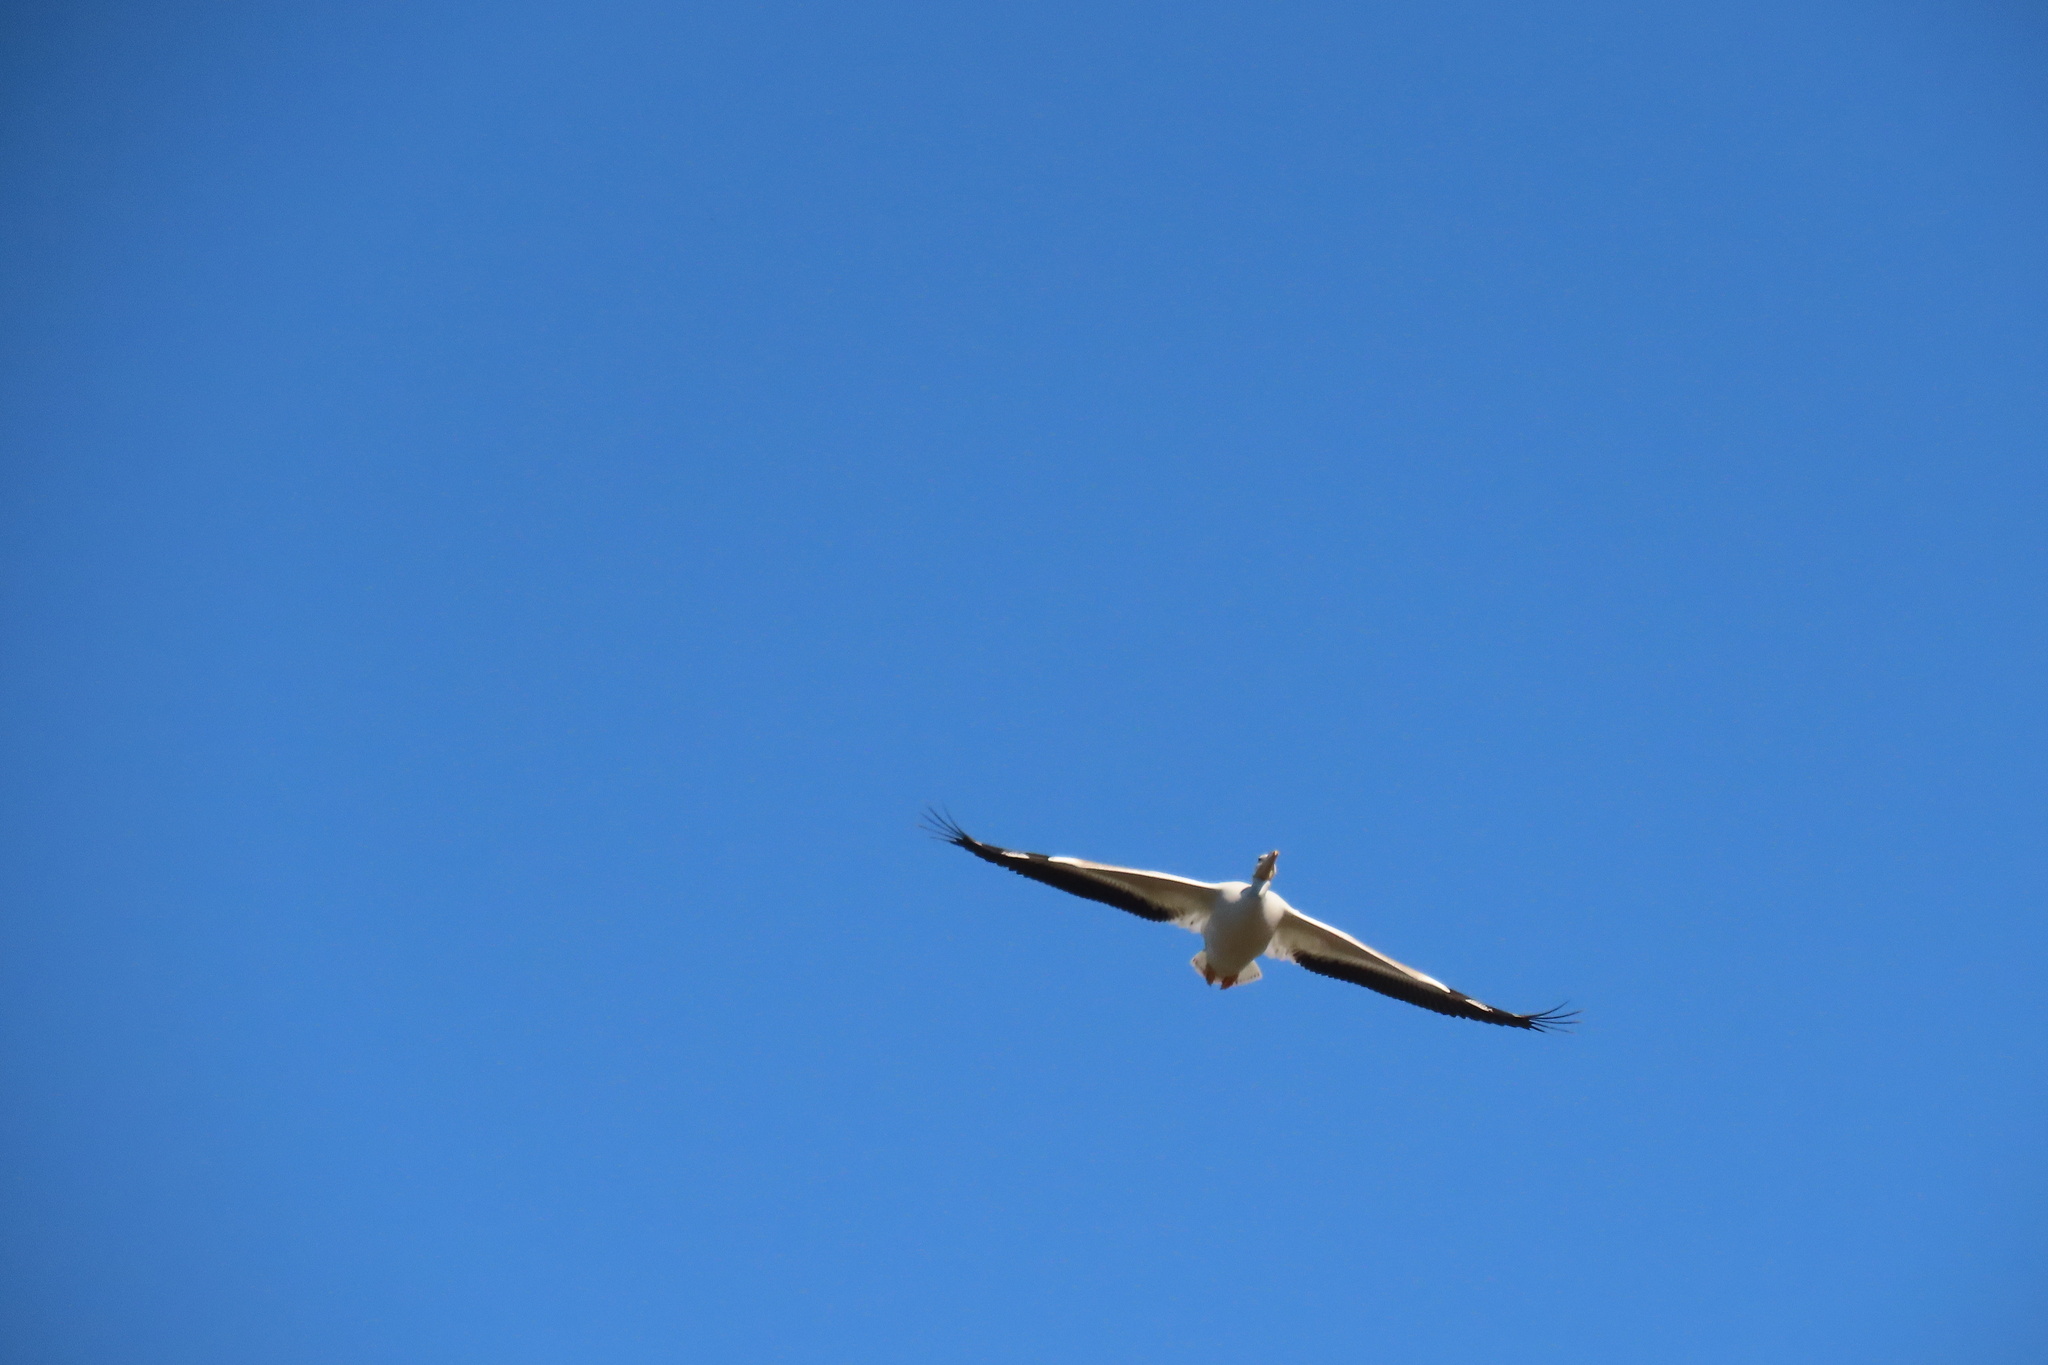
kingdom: Animalia
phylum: Chordata
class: Aves
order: Pelecaniformes
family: Pelecanidae
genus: Pelecanus
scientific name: Pelecanus erythrorhynchos
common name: American white pelican
